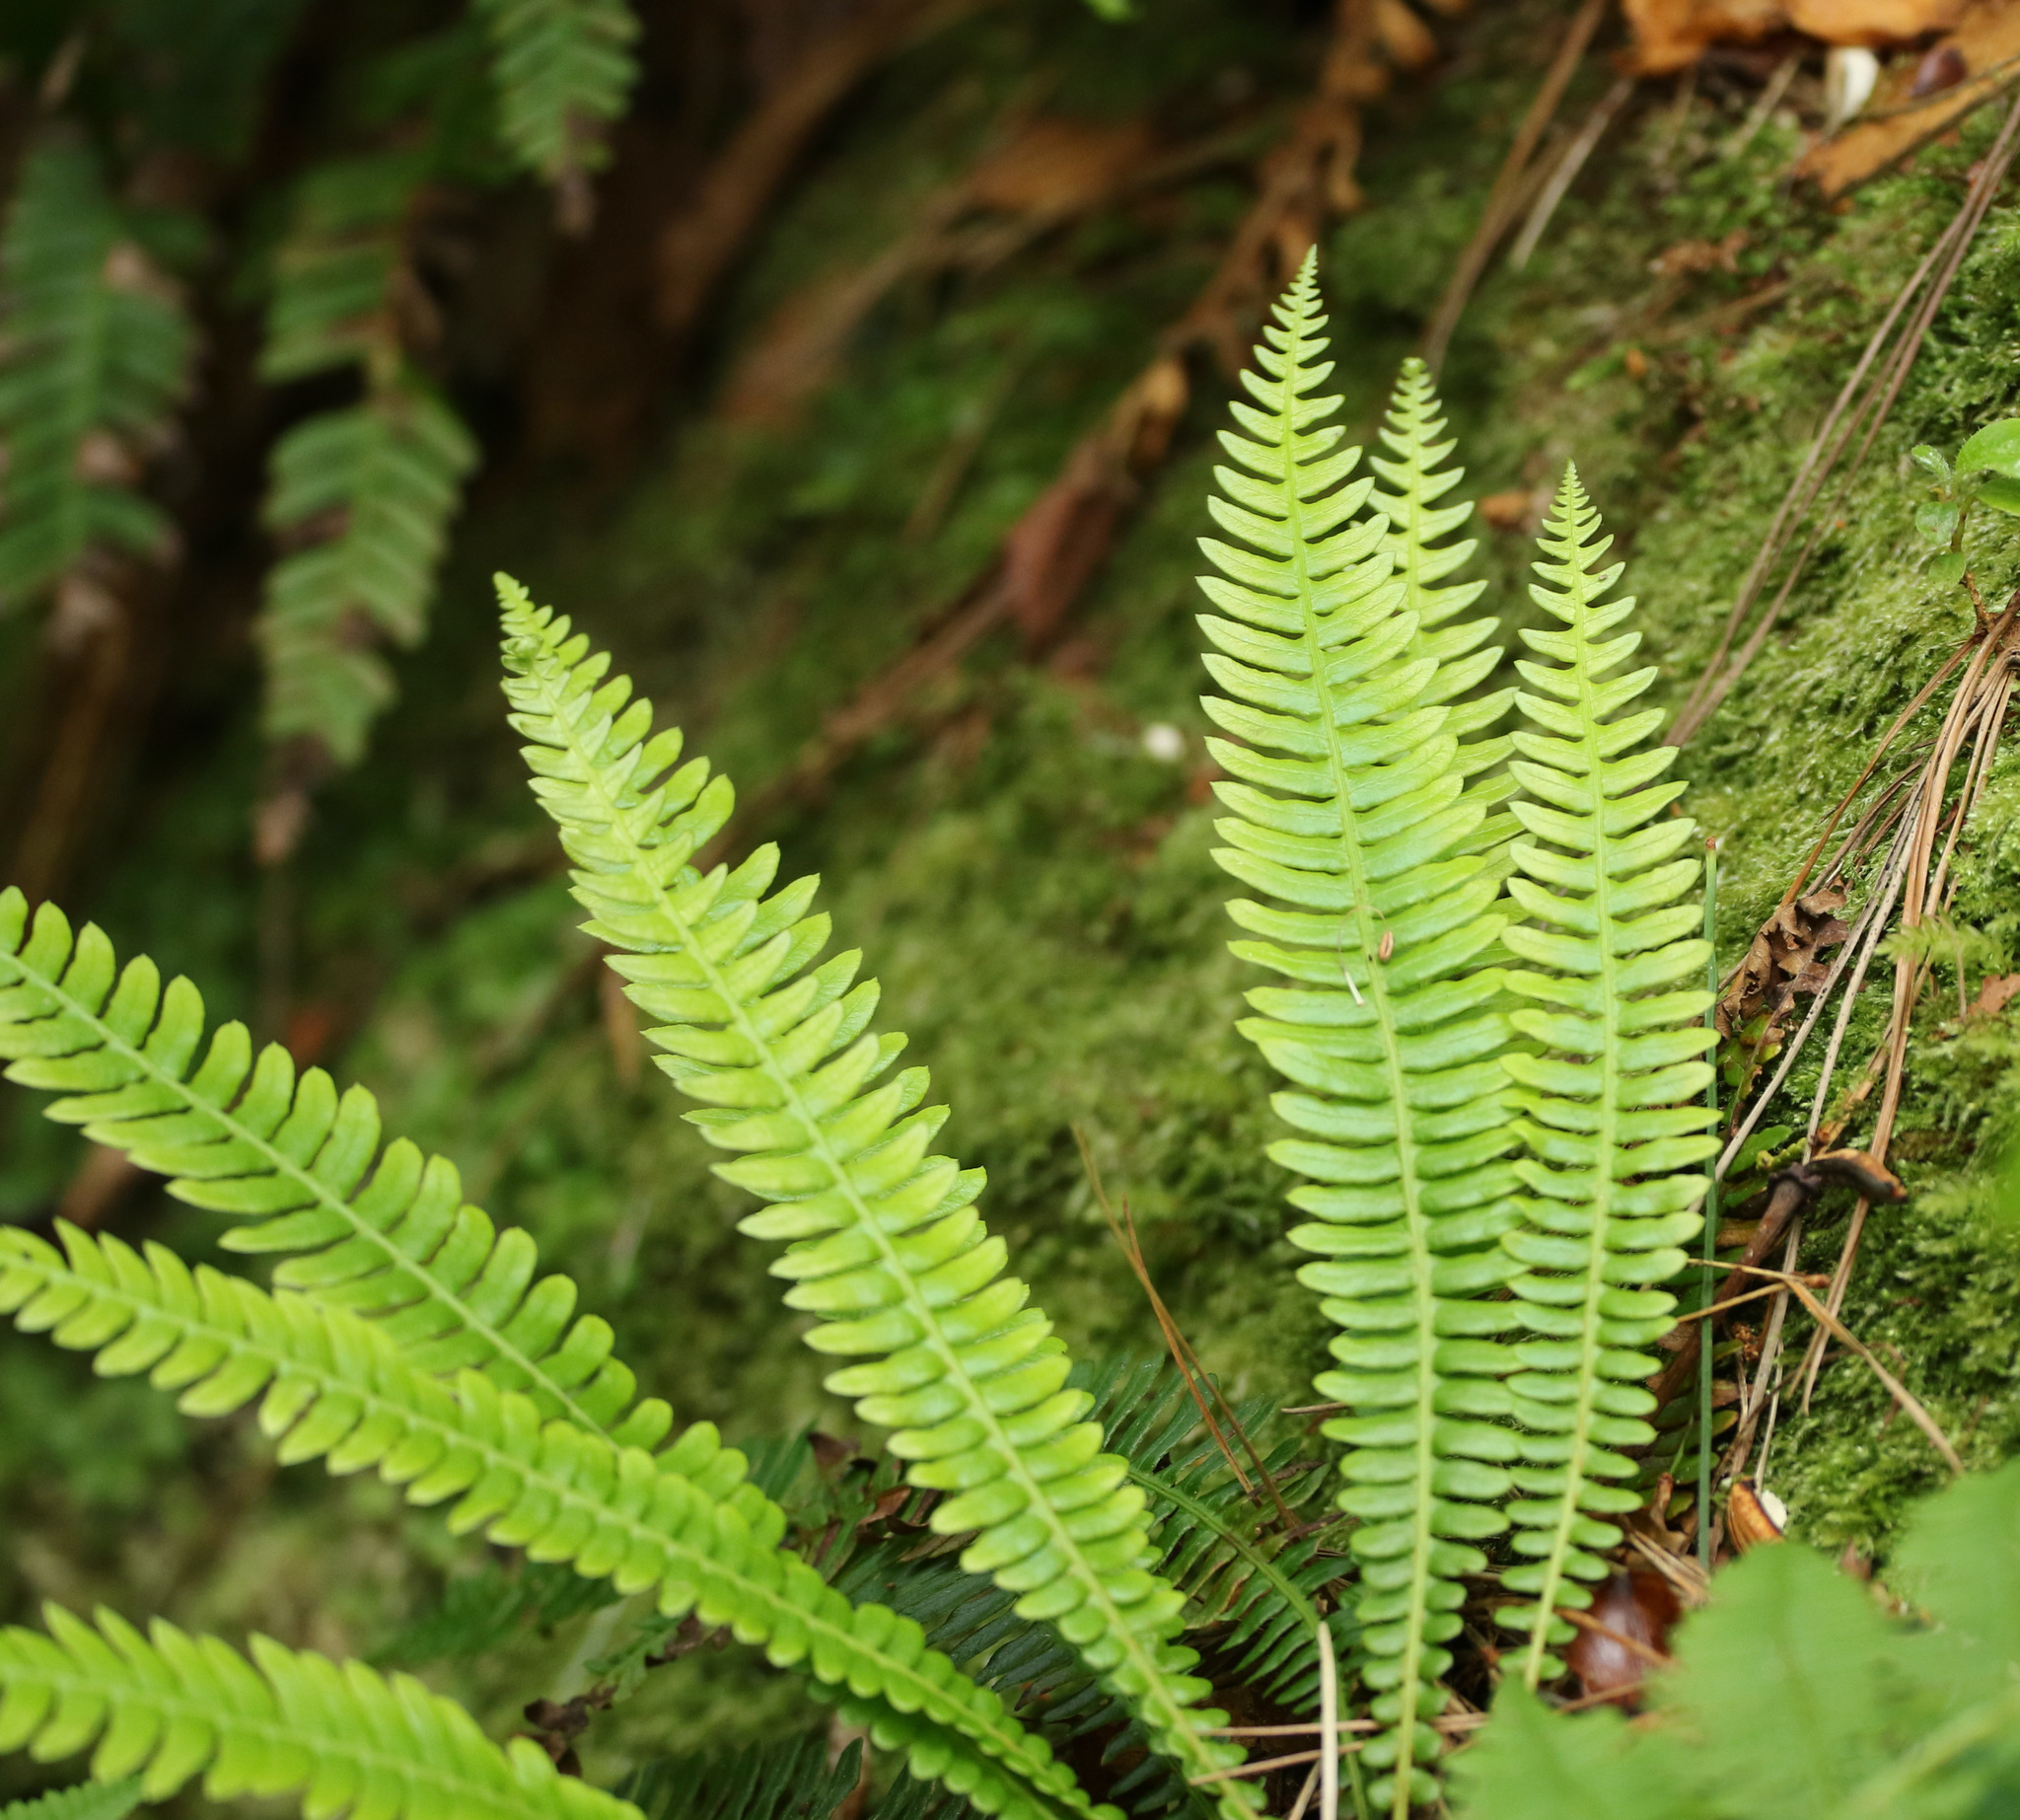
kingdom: Plantae
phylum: Tracheophyta
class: Polypodiopsida
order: Polypodiales
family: Blechnaceae
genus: Struthiopteris
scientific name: Struthiopteris spicant
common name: Deer fern
